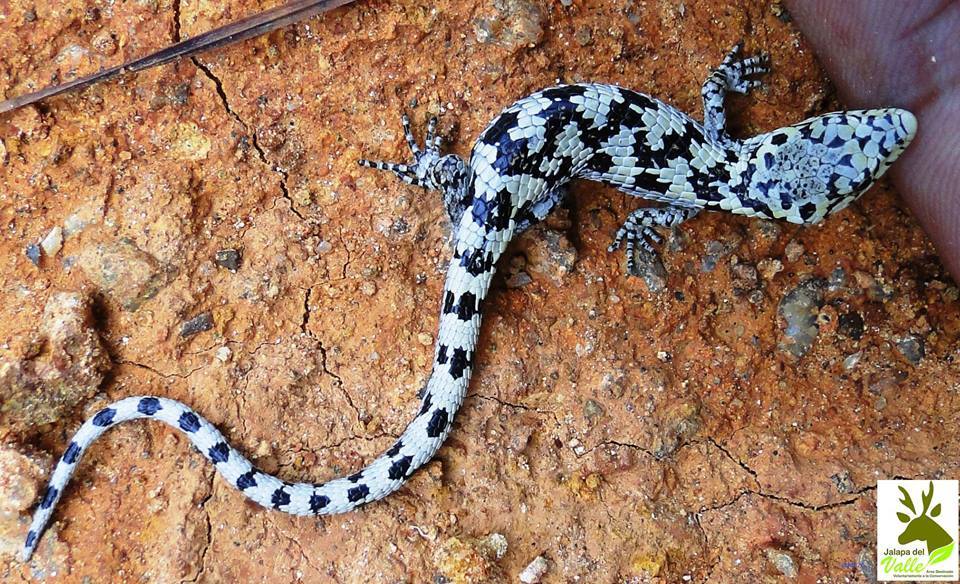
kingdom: Animalia
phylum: Chordata
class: Squamata
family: Anguidae
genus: Abronia
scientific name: Abronia mixteca
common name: Mixtecan arboreal alligator lizard
